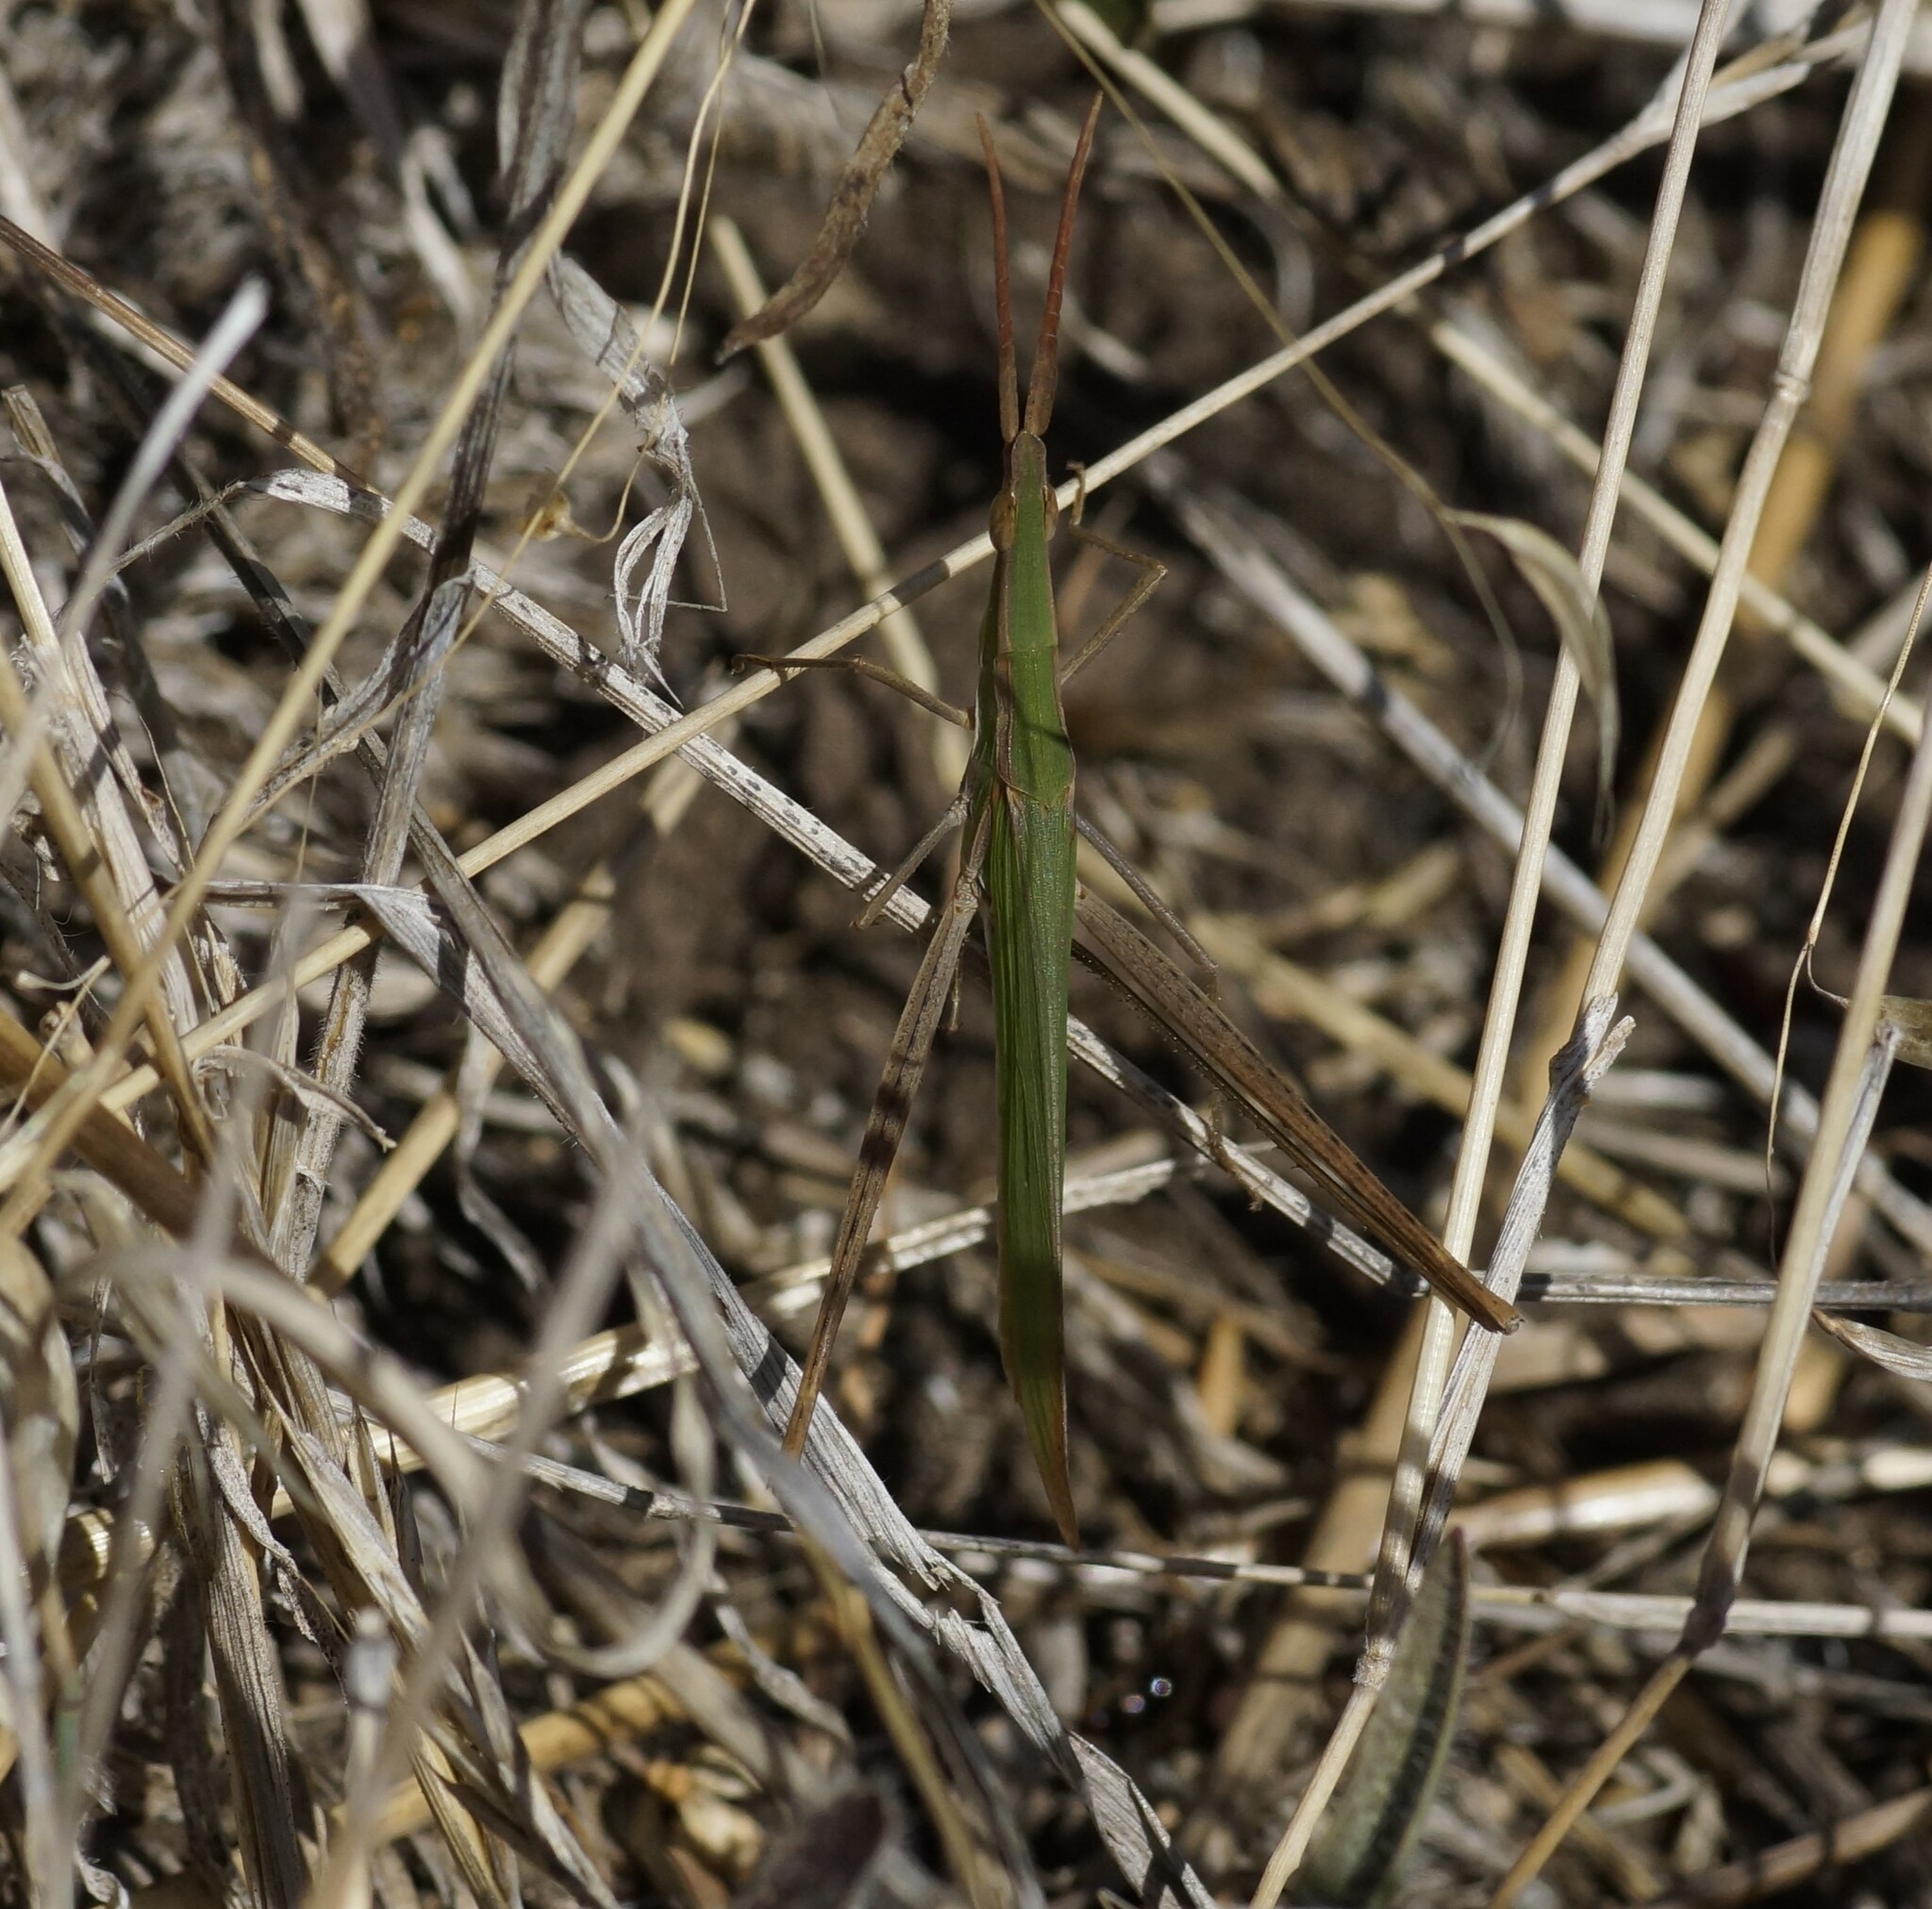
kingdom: Animalia
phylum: Arthropoda
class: Insecta
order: Orthoptera
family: Acrididae
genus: Acrida
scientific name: Acrida conica
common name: Giant green slantface
